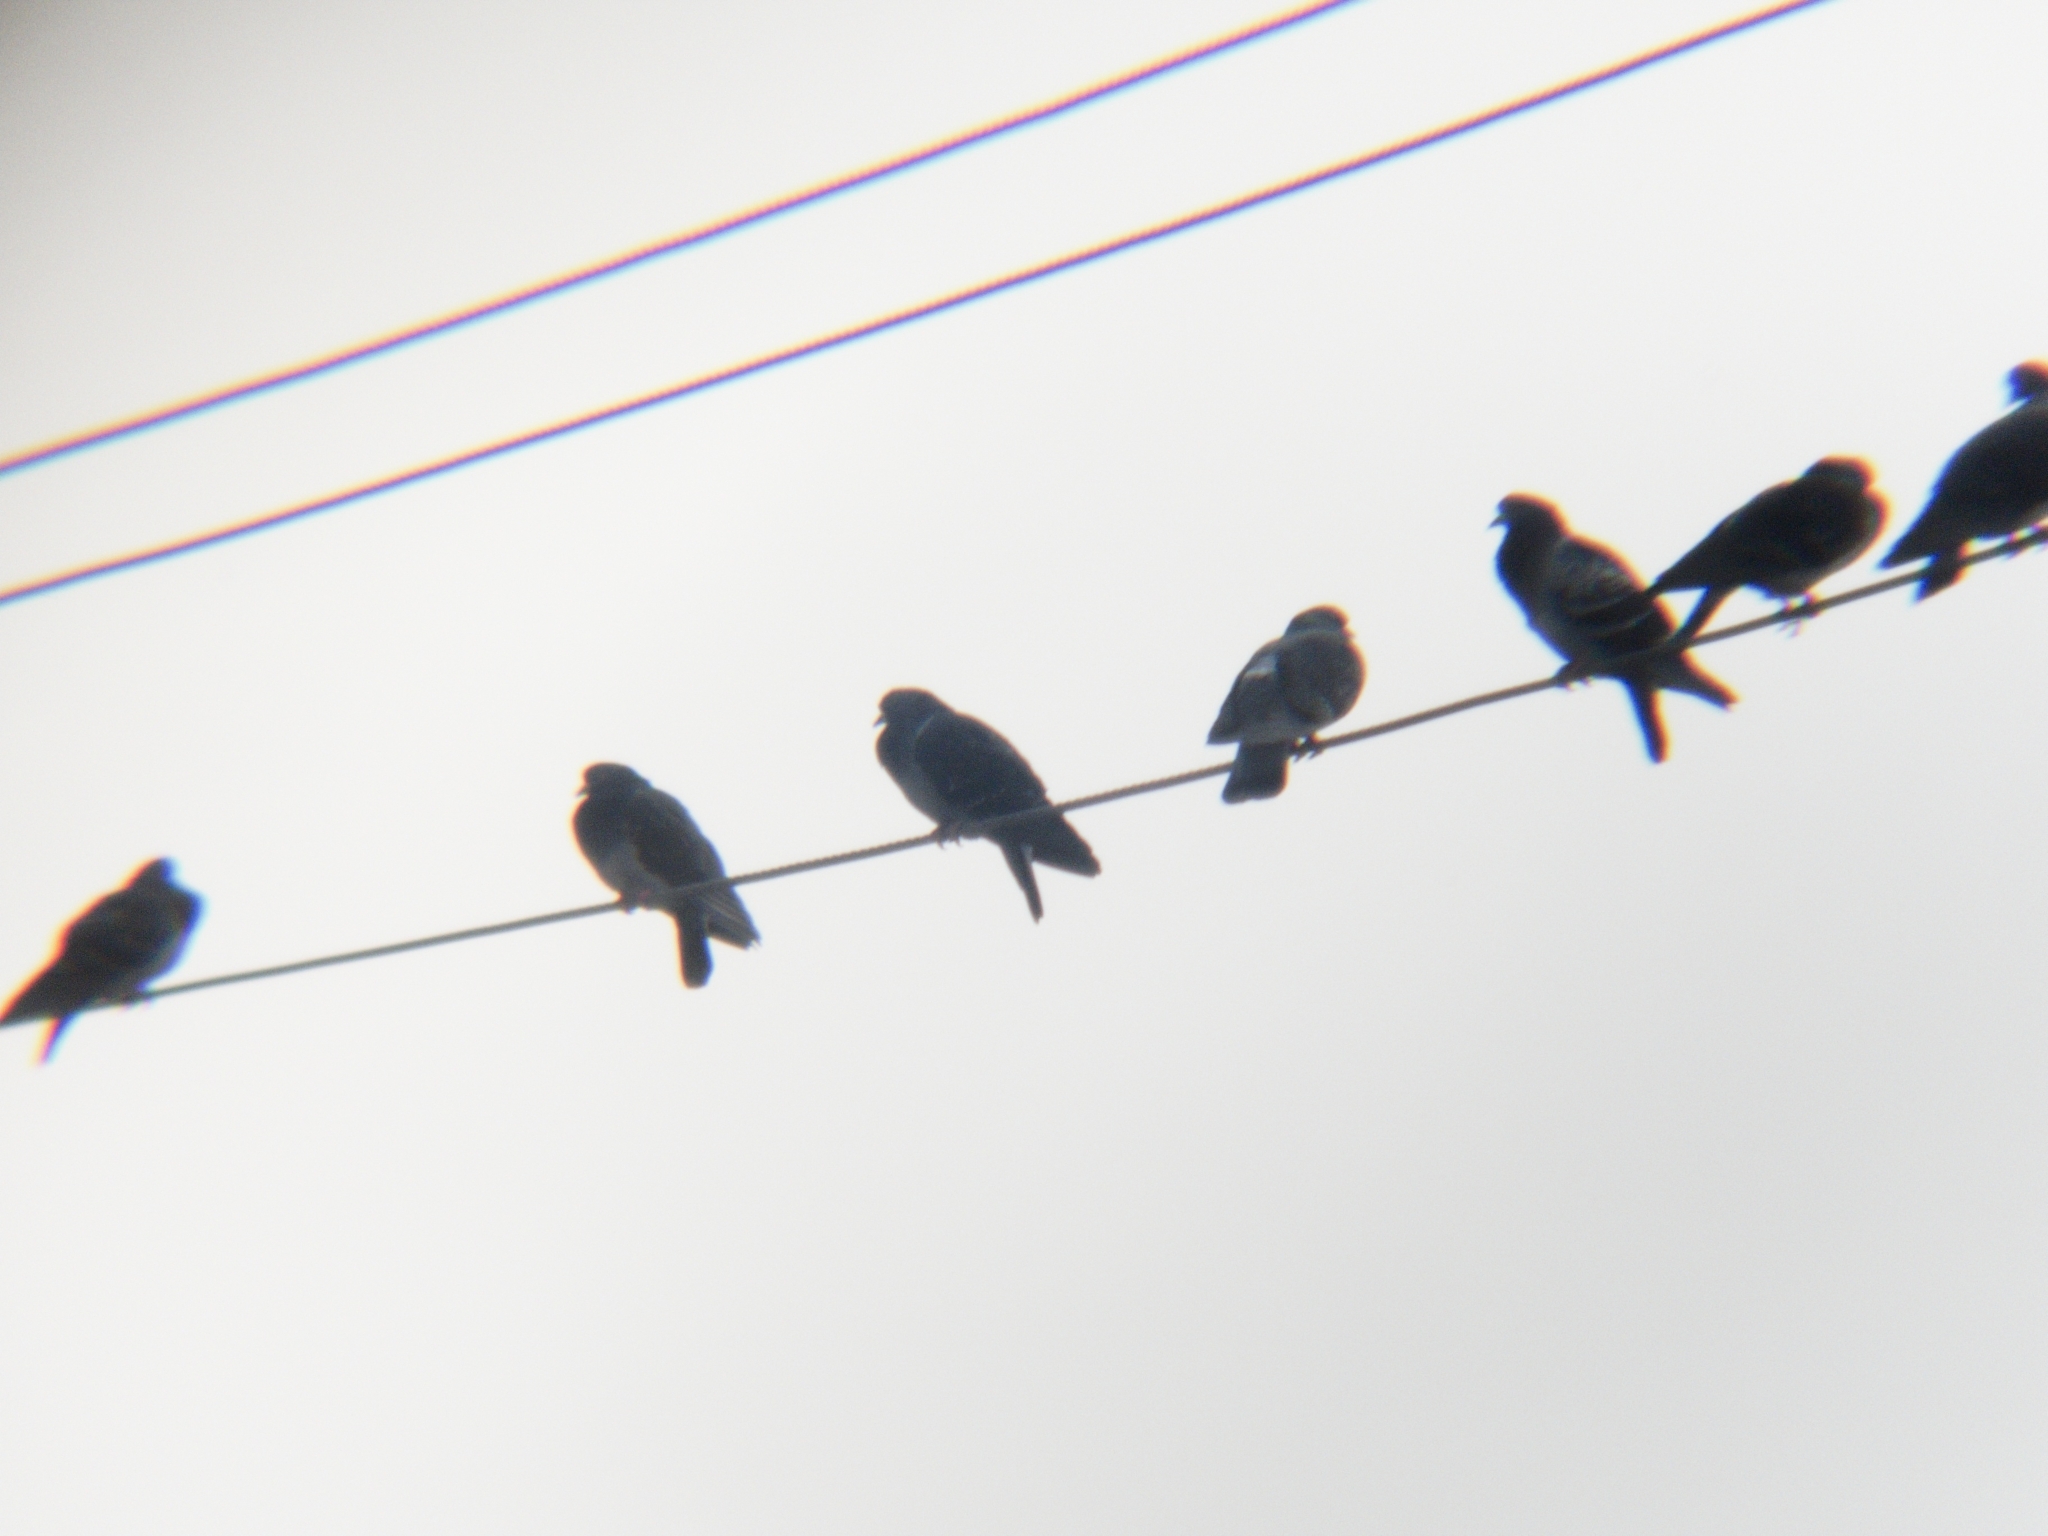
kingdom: Animalia
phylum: Chordata
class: Aves
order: Columbiformes
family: Columbidae
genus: Columba
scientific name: Columba livia
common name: Rock pigeon
